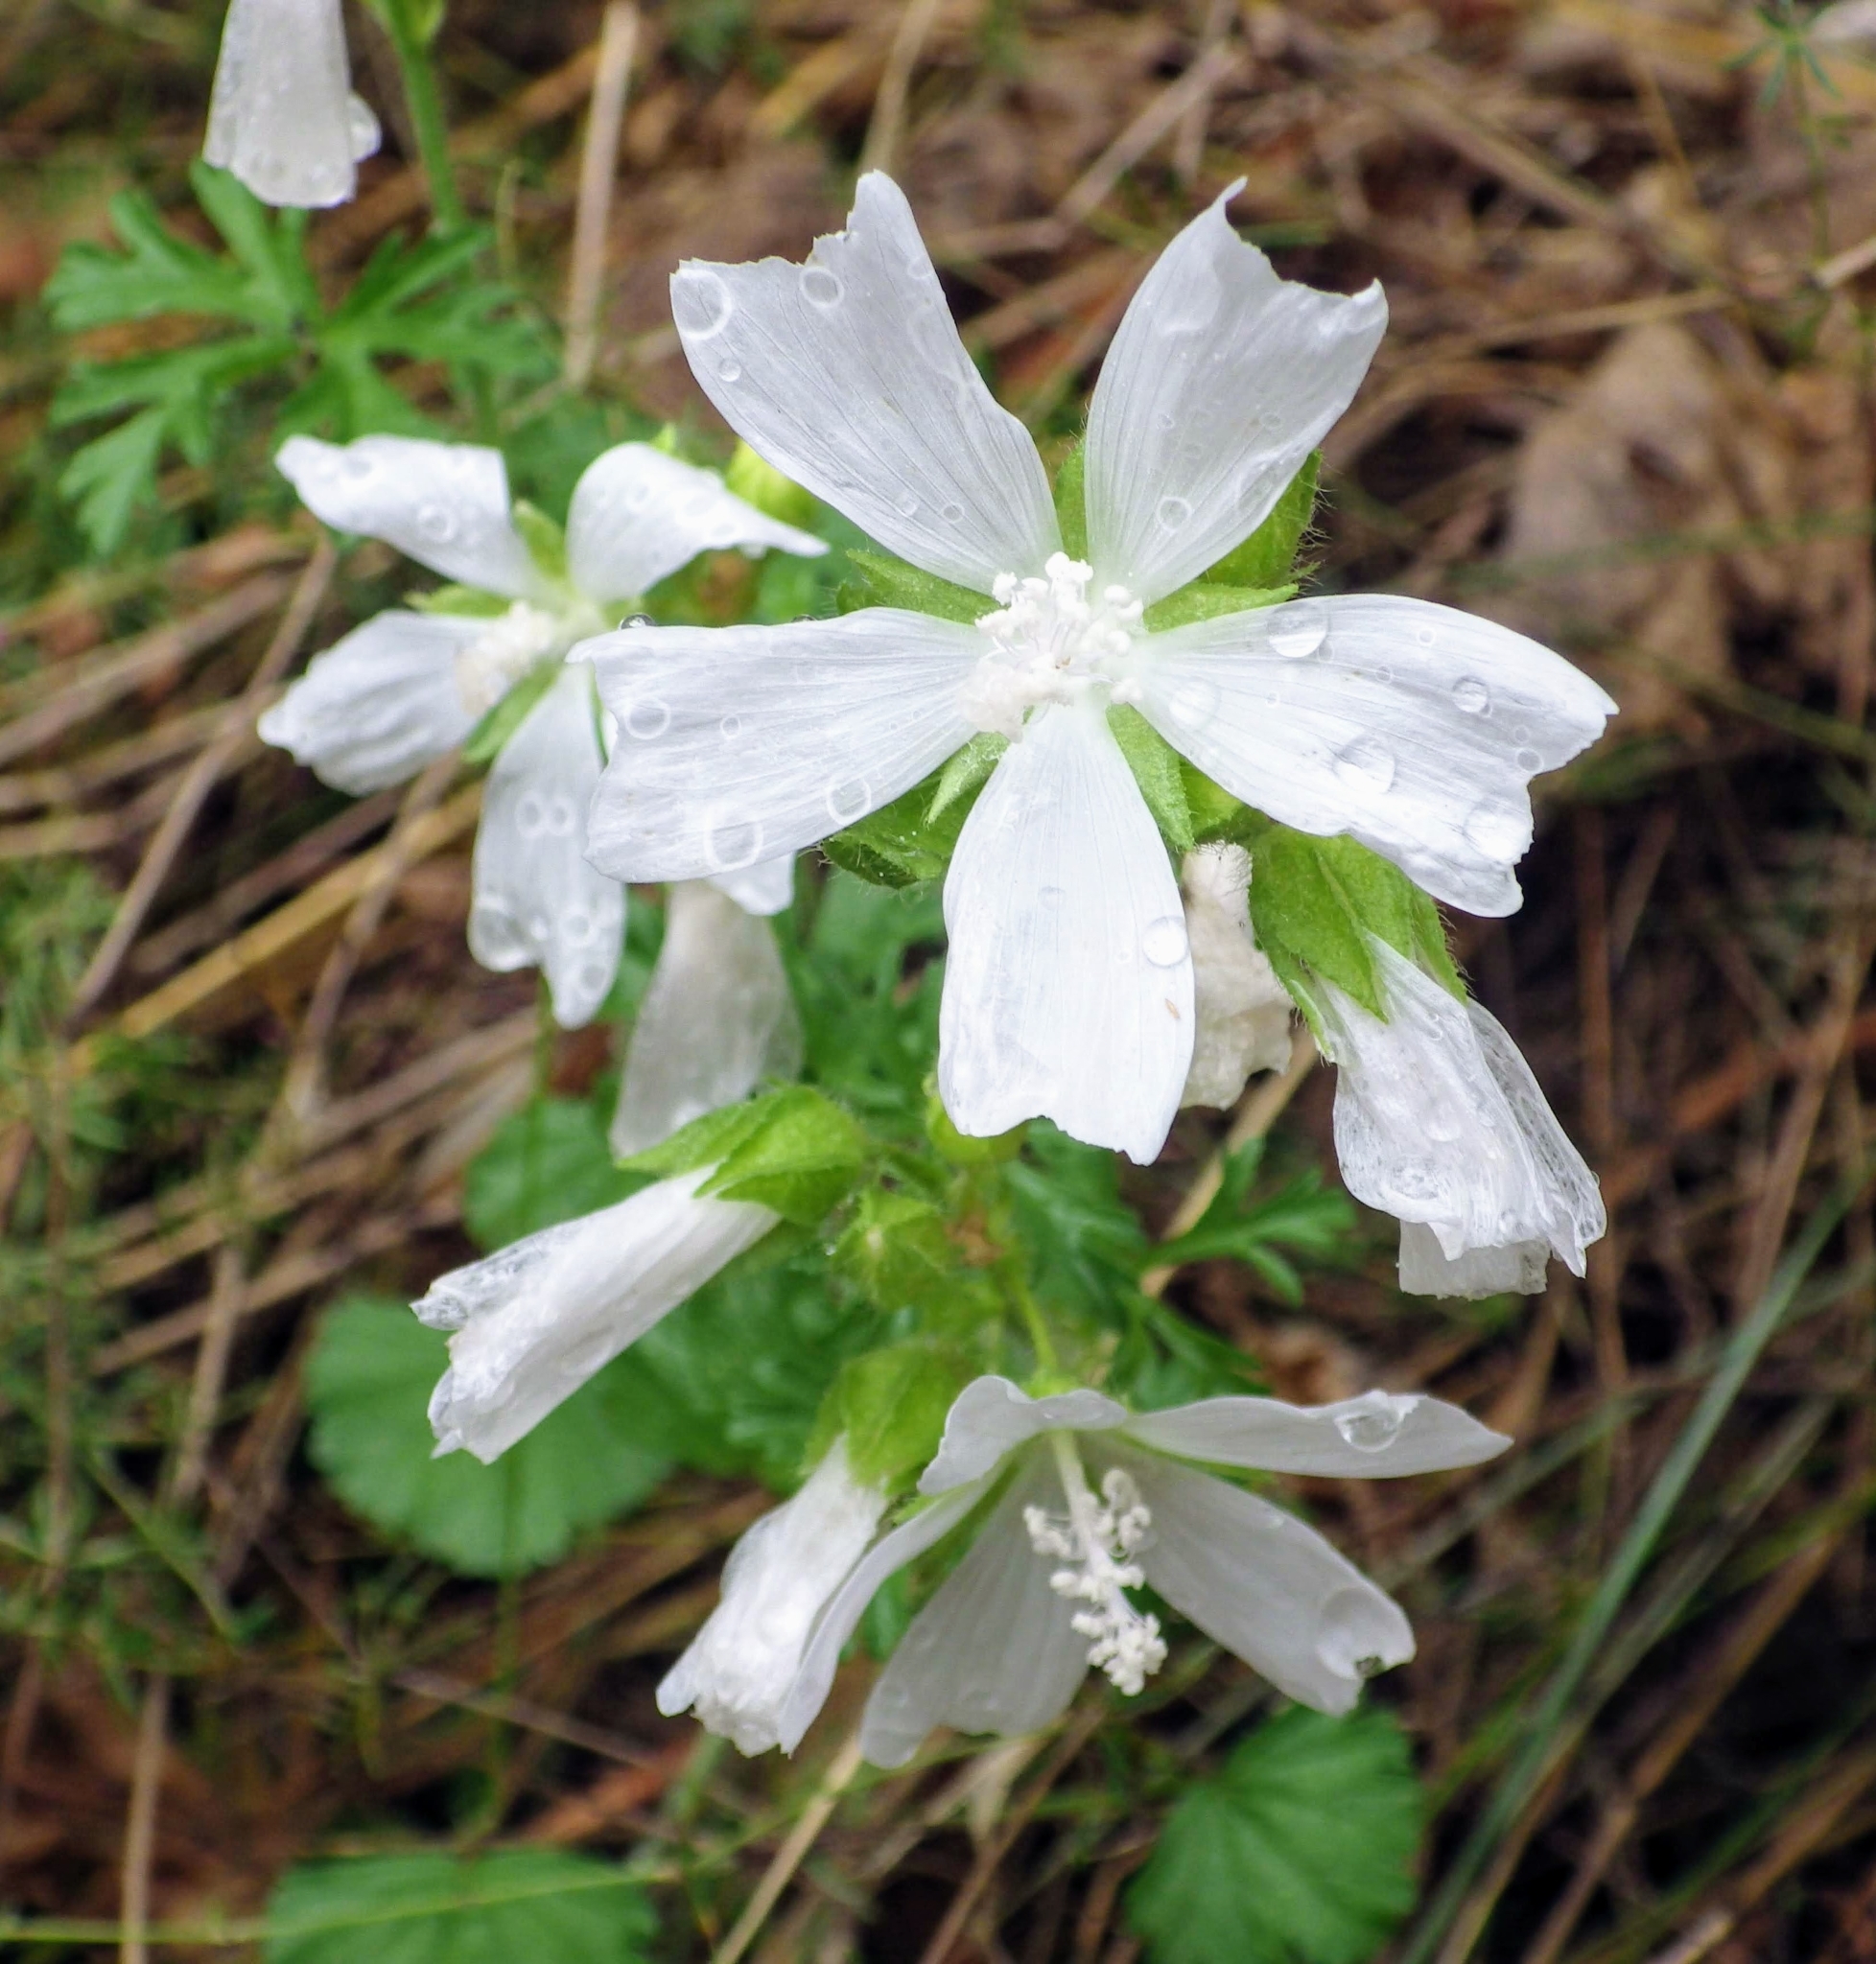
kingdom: Plantae
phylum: Tracheophyta
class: Magnoliopsida
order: Malvales
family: Malvaceae
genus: Malva
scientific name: Malva moschata
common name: Musk mallow
